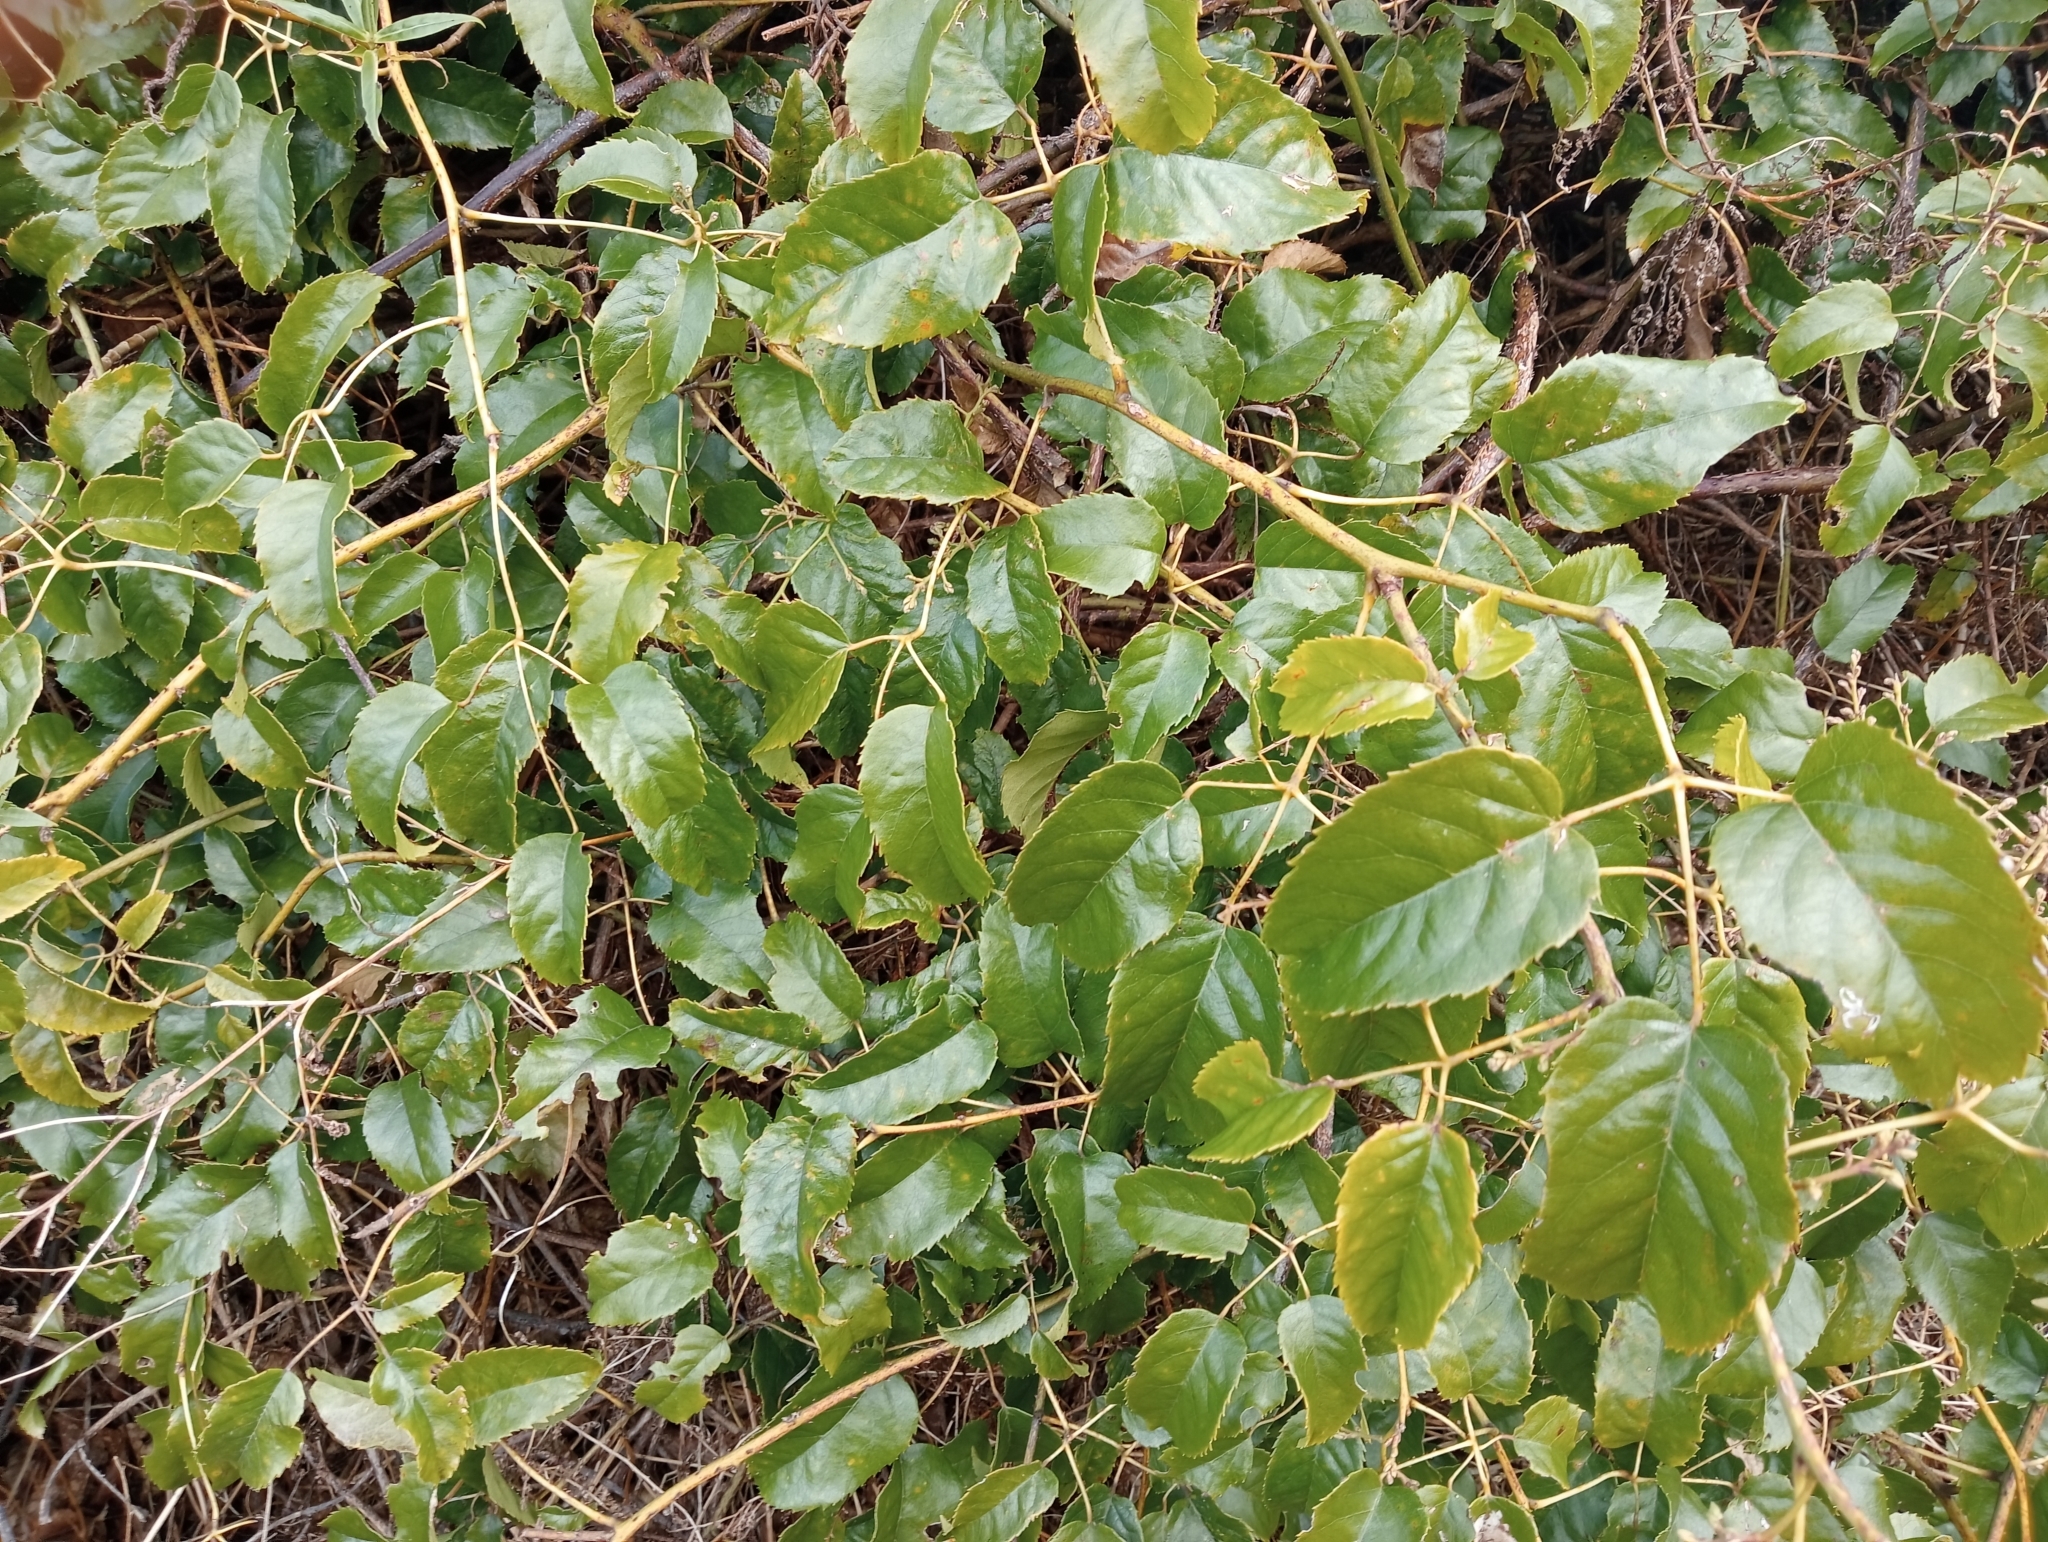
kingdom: Plantae
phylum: Tracheophyta
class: Magnoliopsida
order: Rosales
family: Rosaceae
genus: Rubus
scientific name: Rubus cissoides
